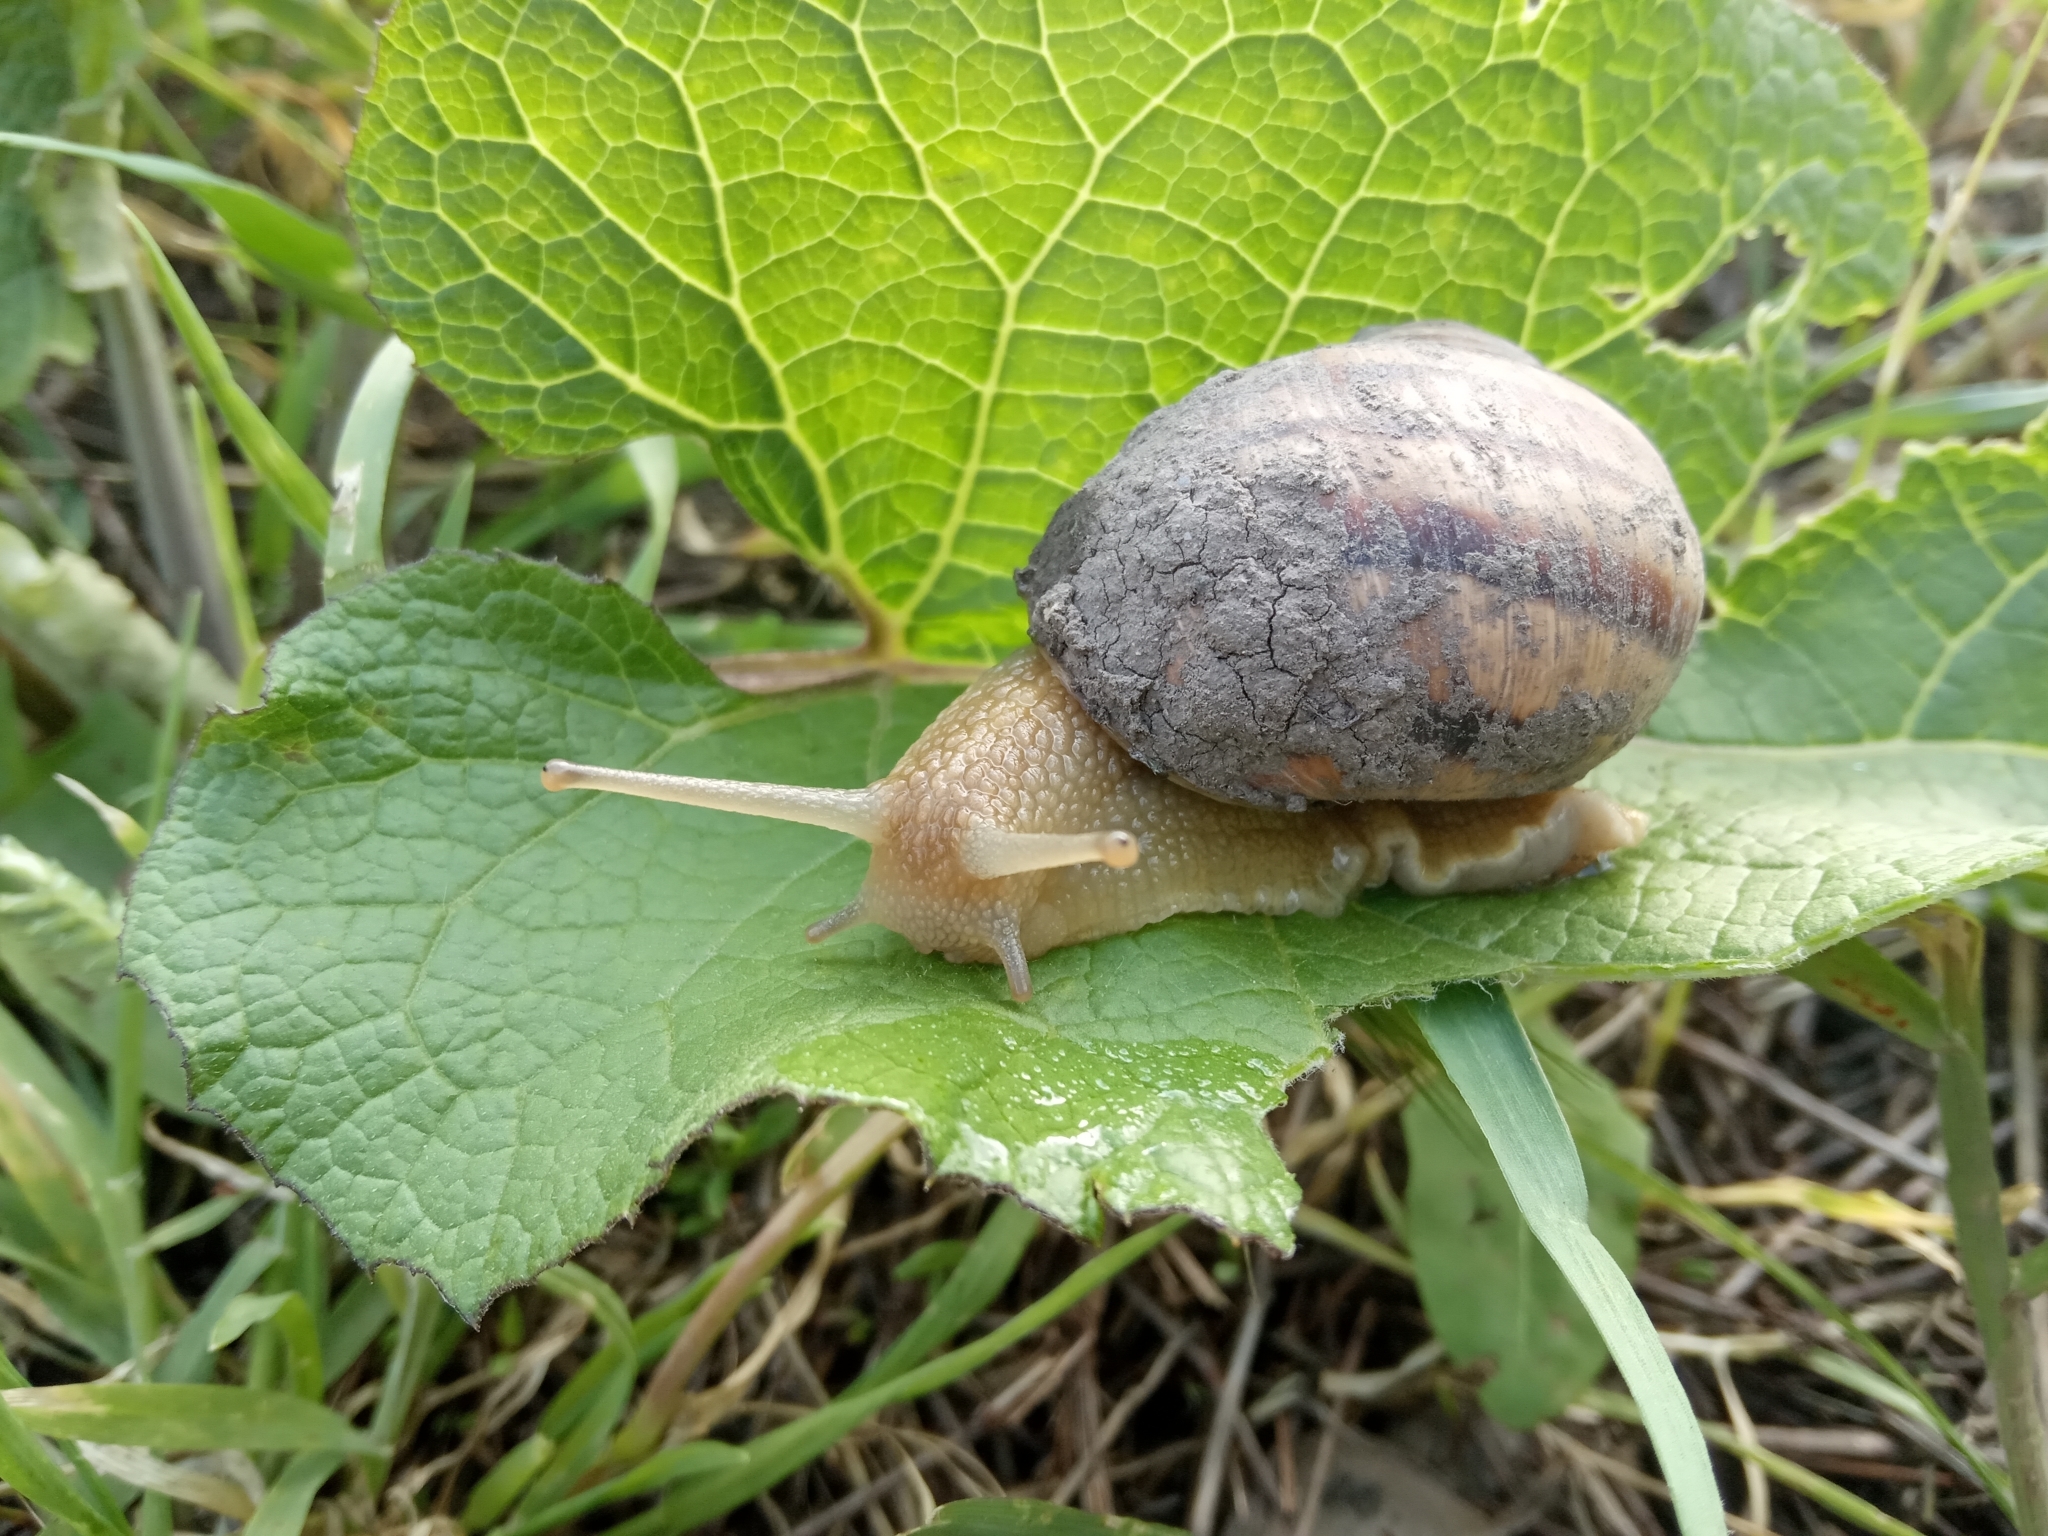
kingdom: Animalia
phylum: Mollusca
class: Gastropoda
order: Stylommatophora
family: Helicidae
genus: Helix
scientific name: Helix albescens
